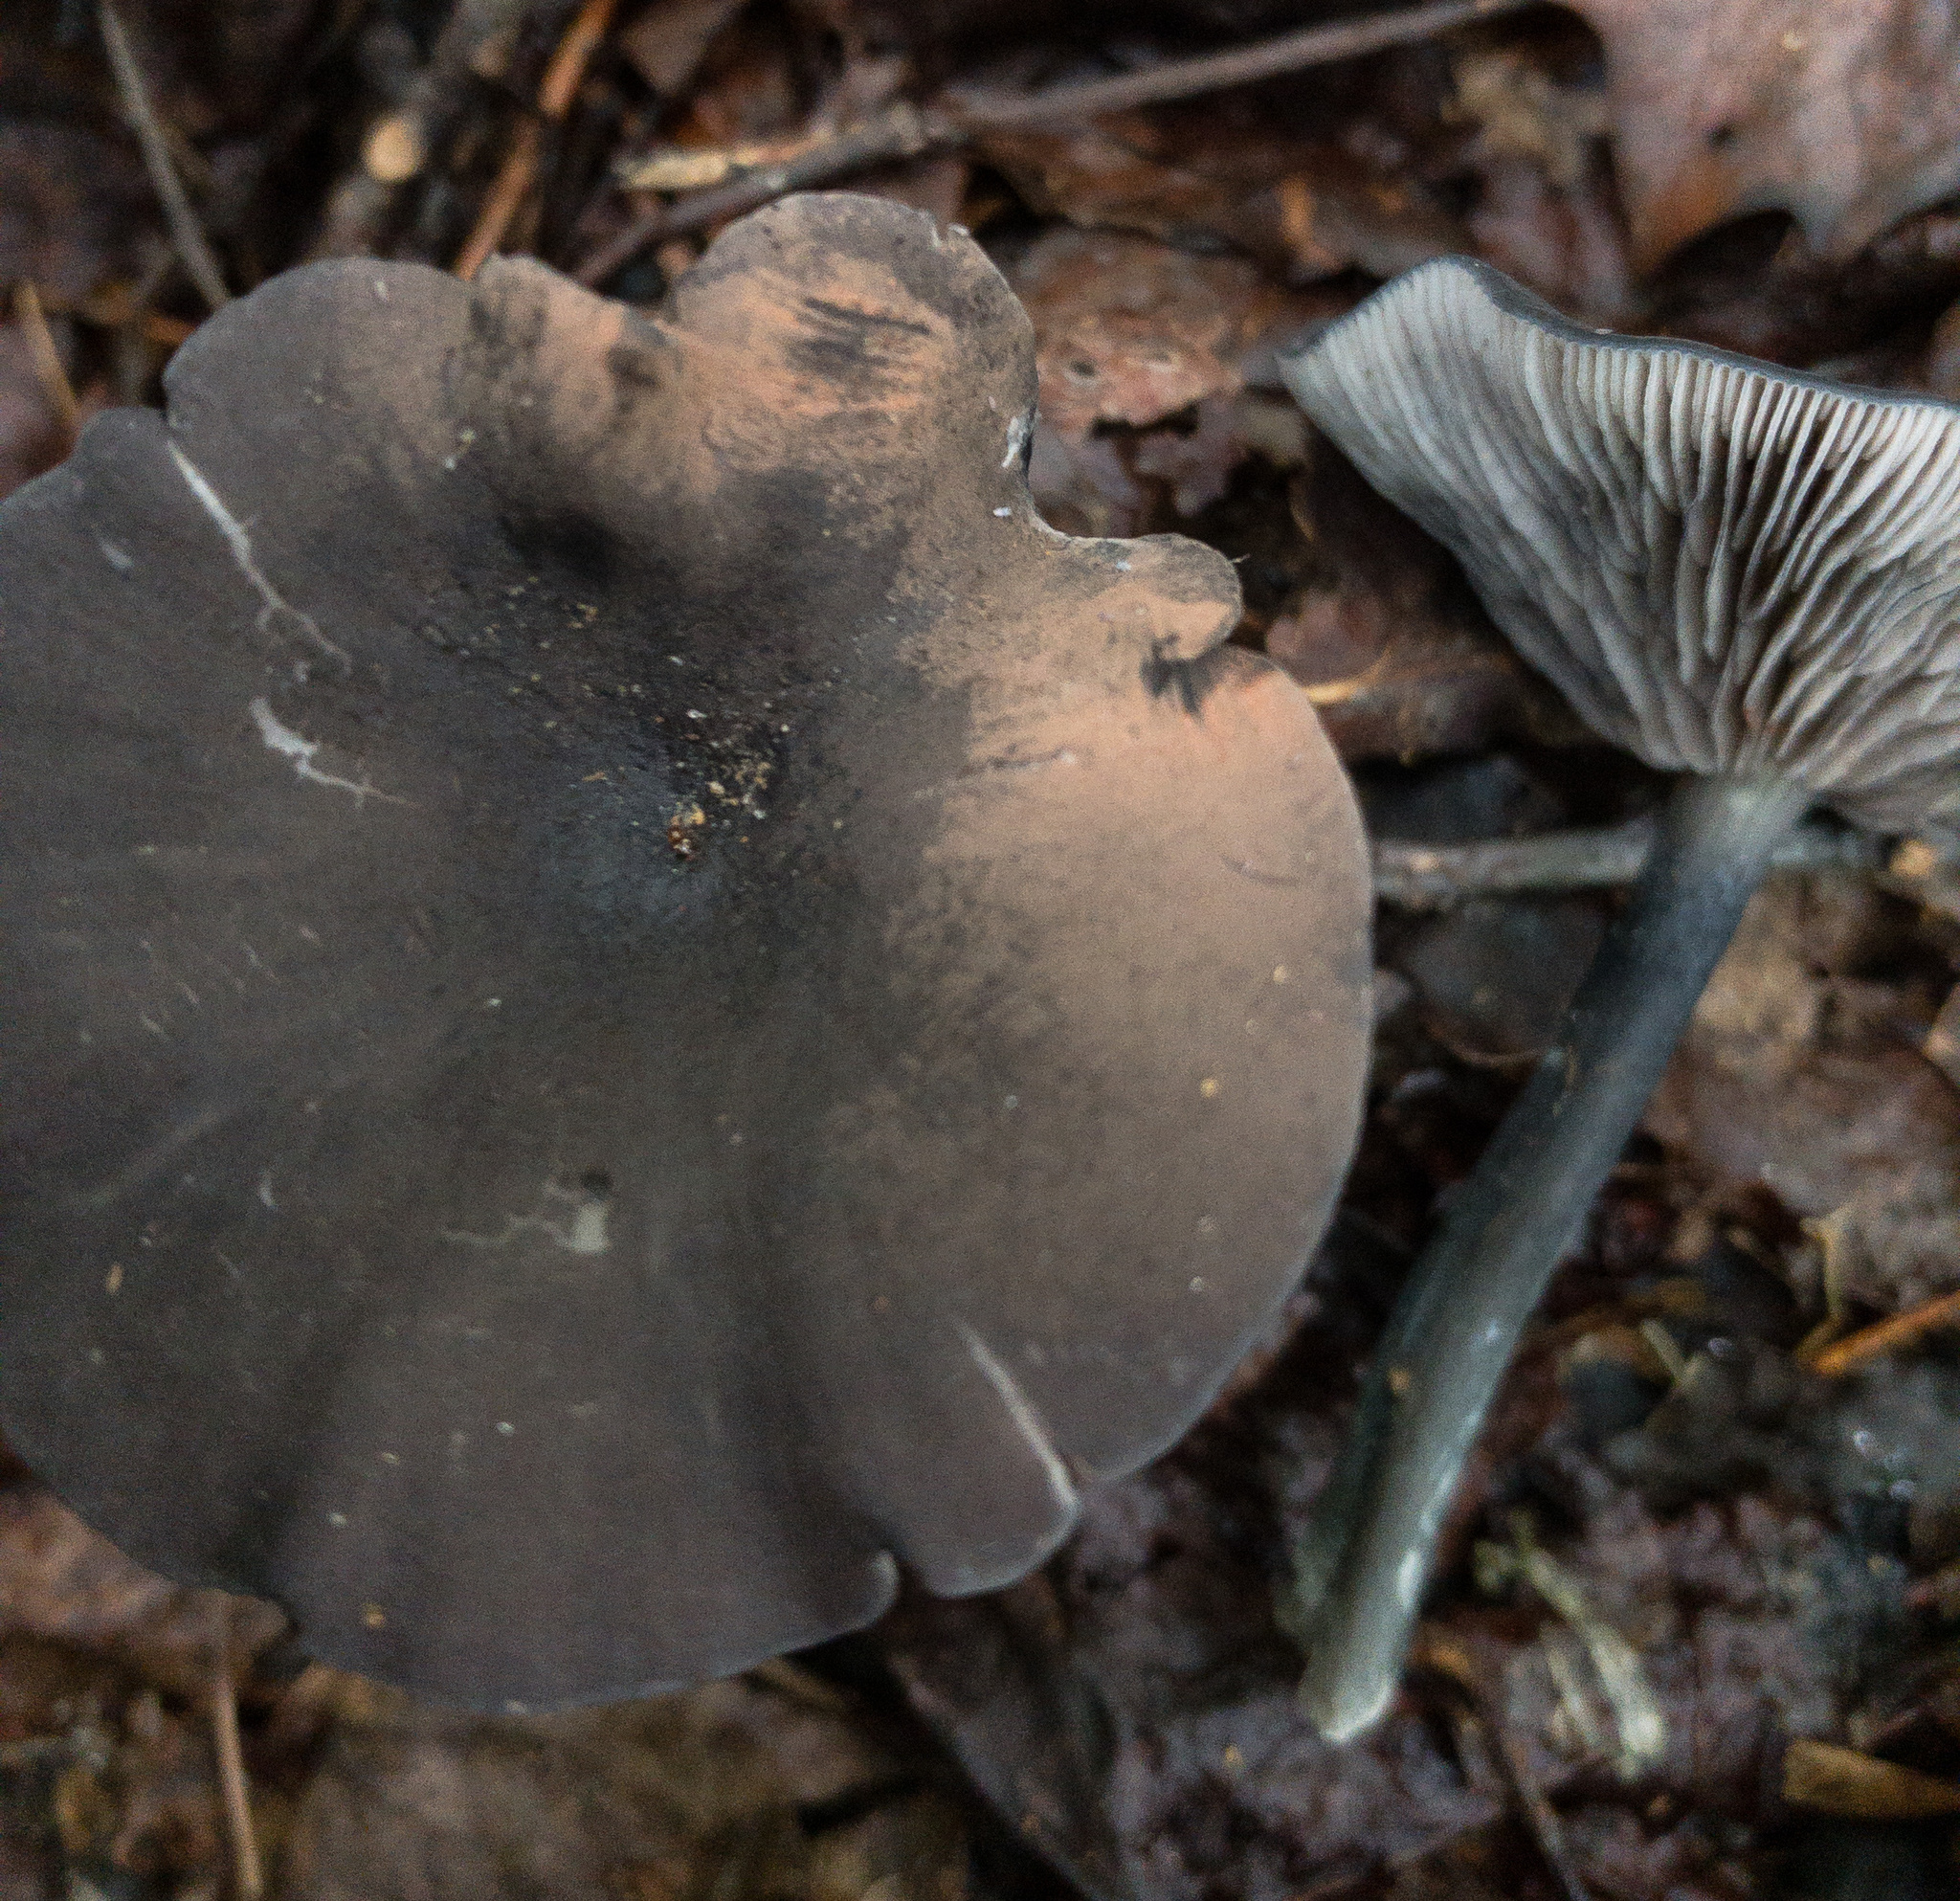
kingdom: Fungi
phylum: Basidiomycota
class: Agaricomycetes
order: Agaricales
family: Entolomataceae
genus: Entoloma
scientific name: Entoloma velutinum
